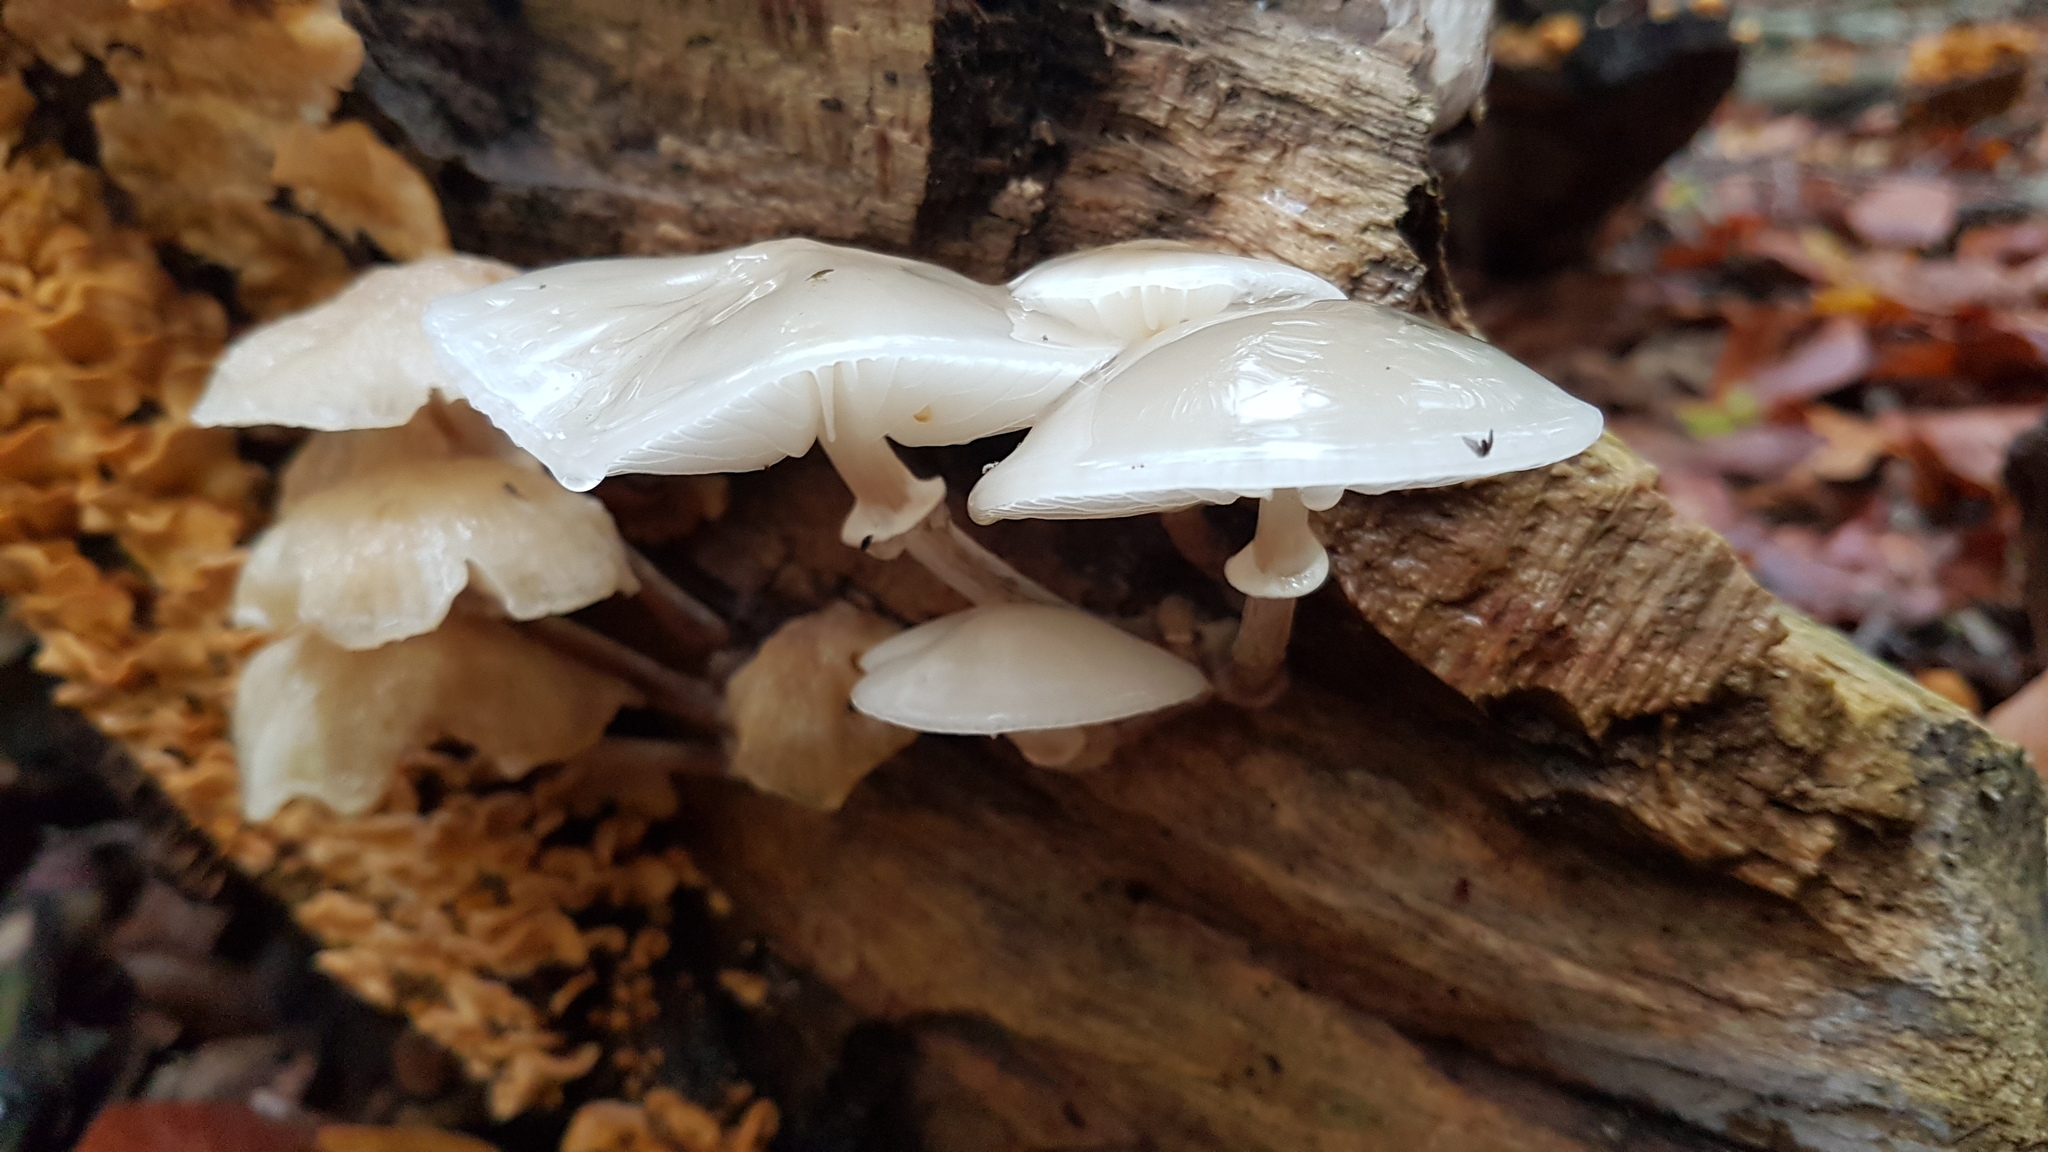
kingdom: Fungi
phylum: Basidiomycota
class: Agaricomycetes
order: Agaricales
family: Physalacriaceae
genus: Mucidula
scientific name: Mucidula mucida
